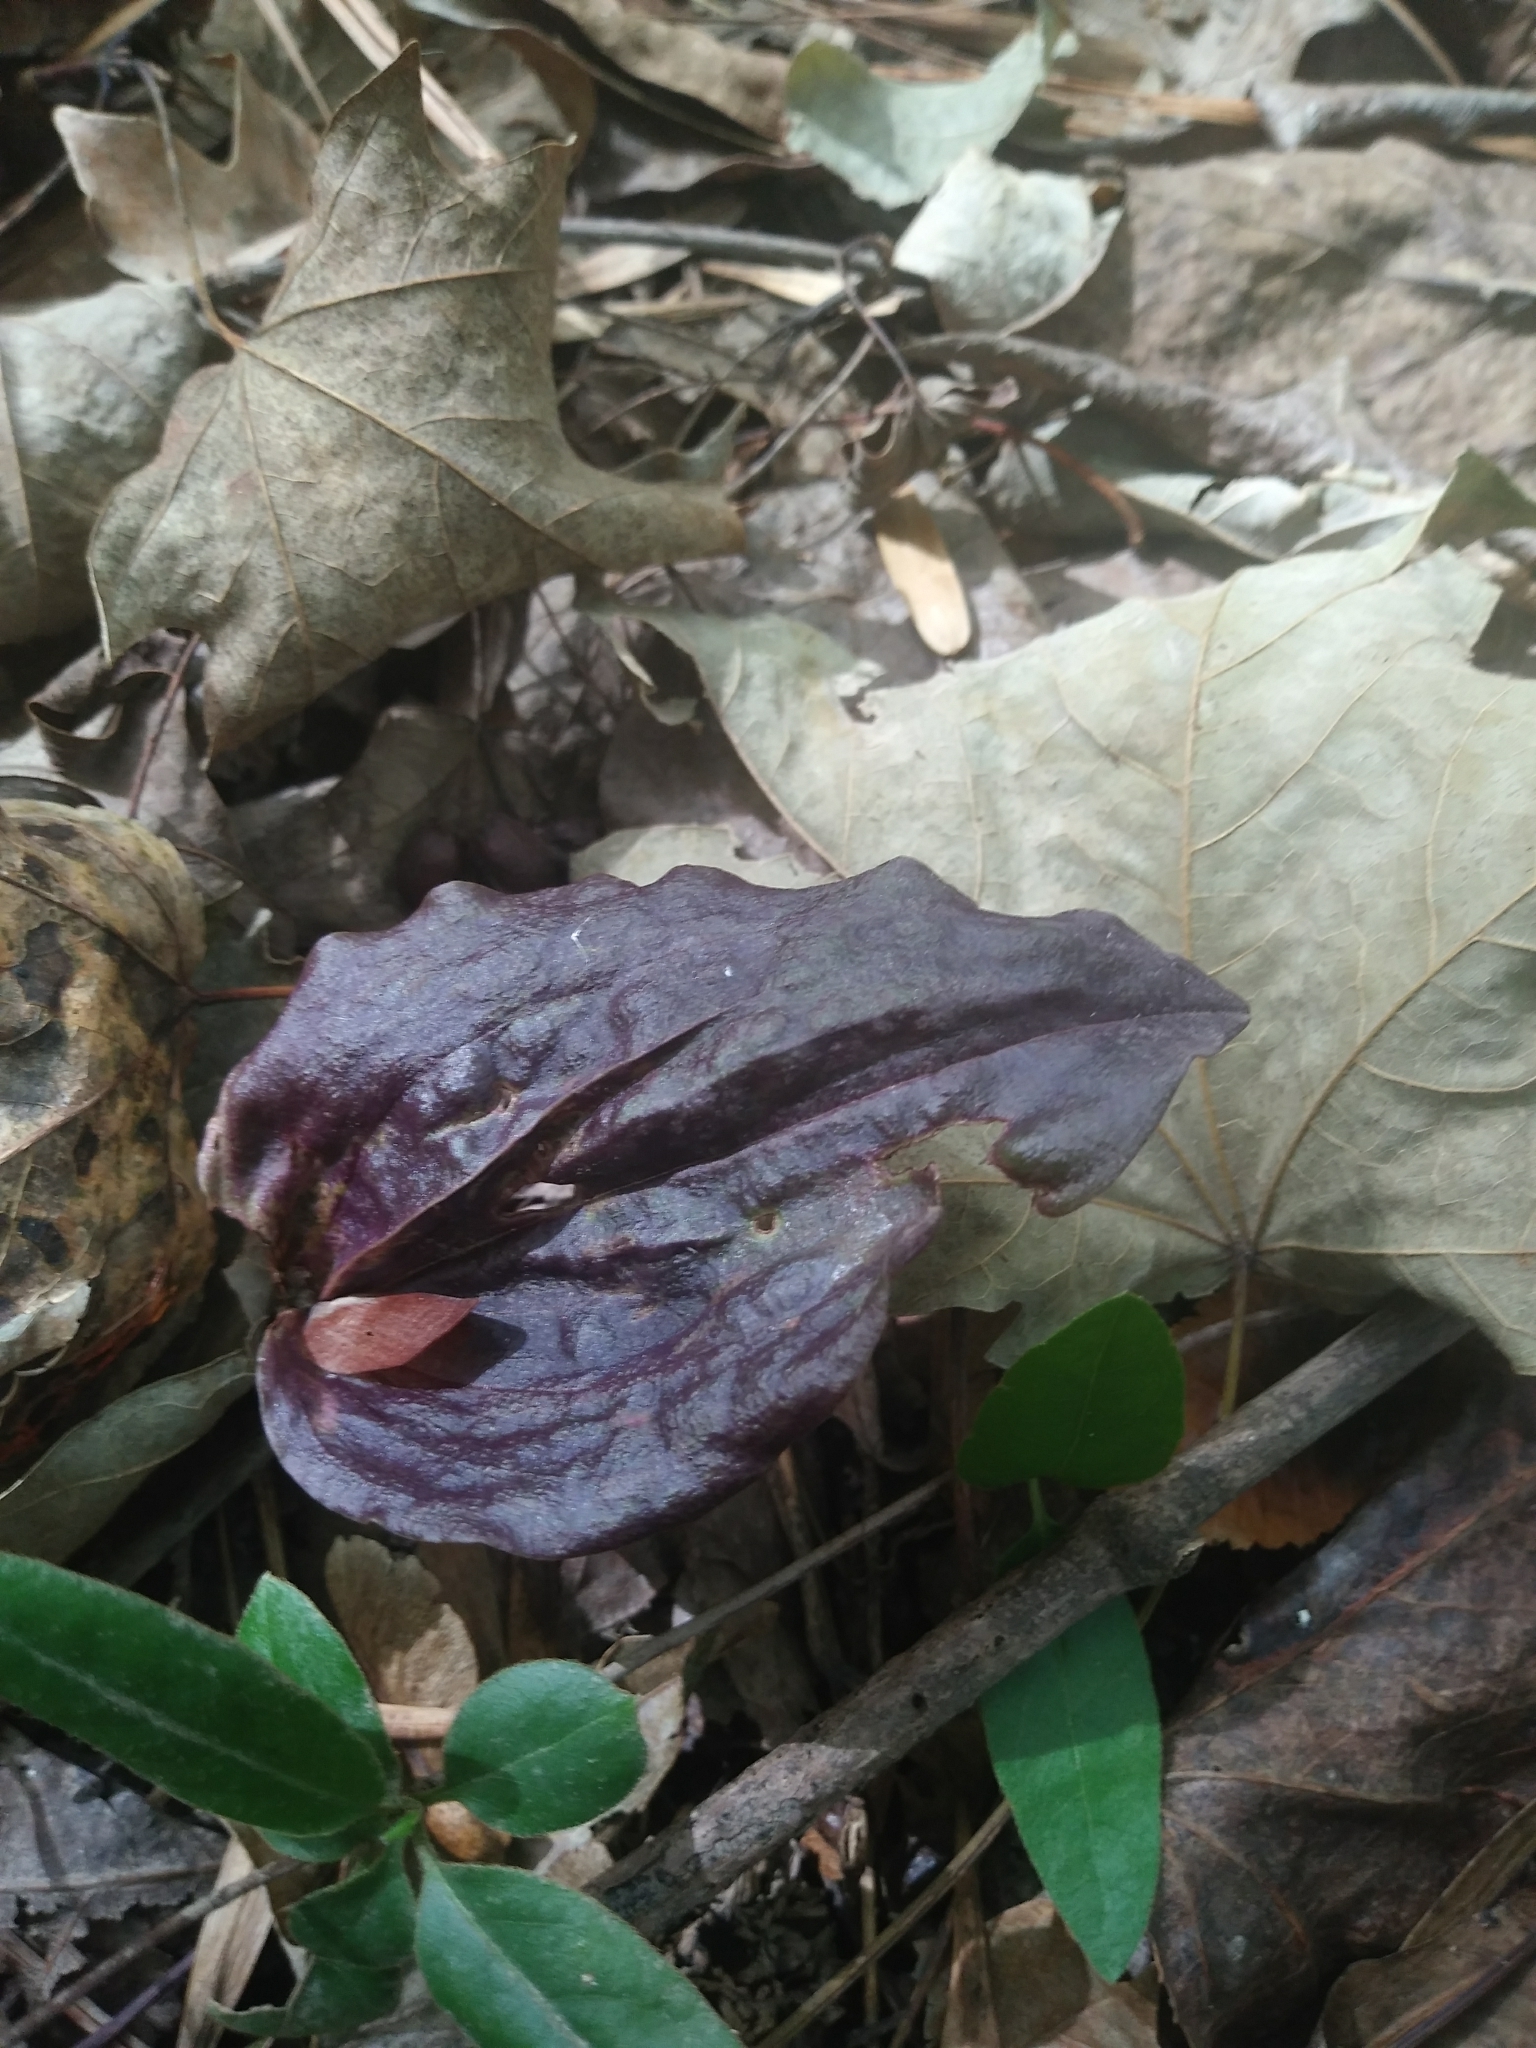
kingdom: Plantae
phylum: Tracheophyta
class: Liliopsida
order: Asparagales
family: Orchidaceae
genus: Tipularia
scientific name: Tipularia discolor
